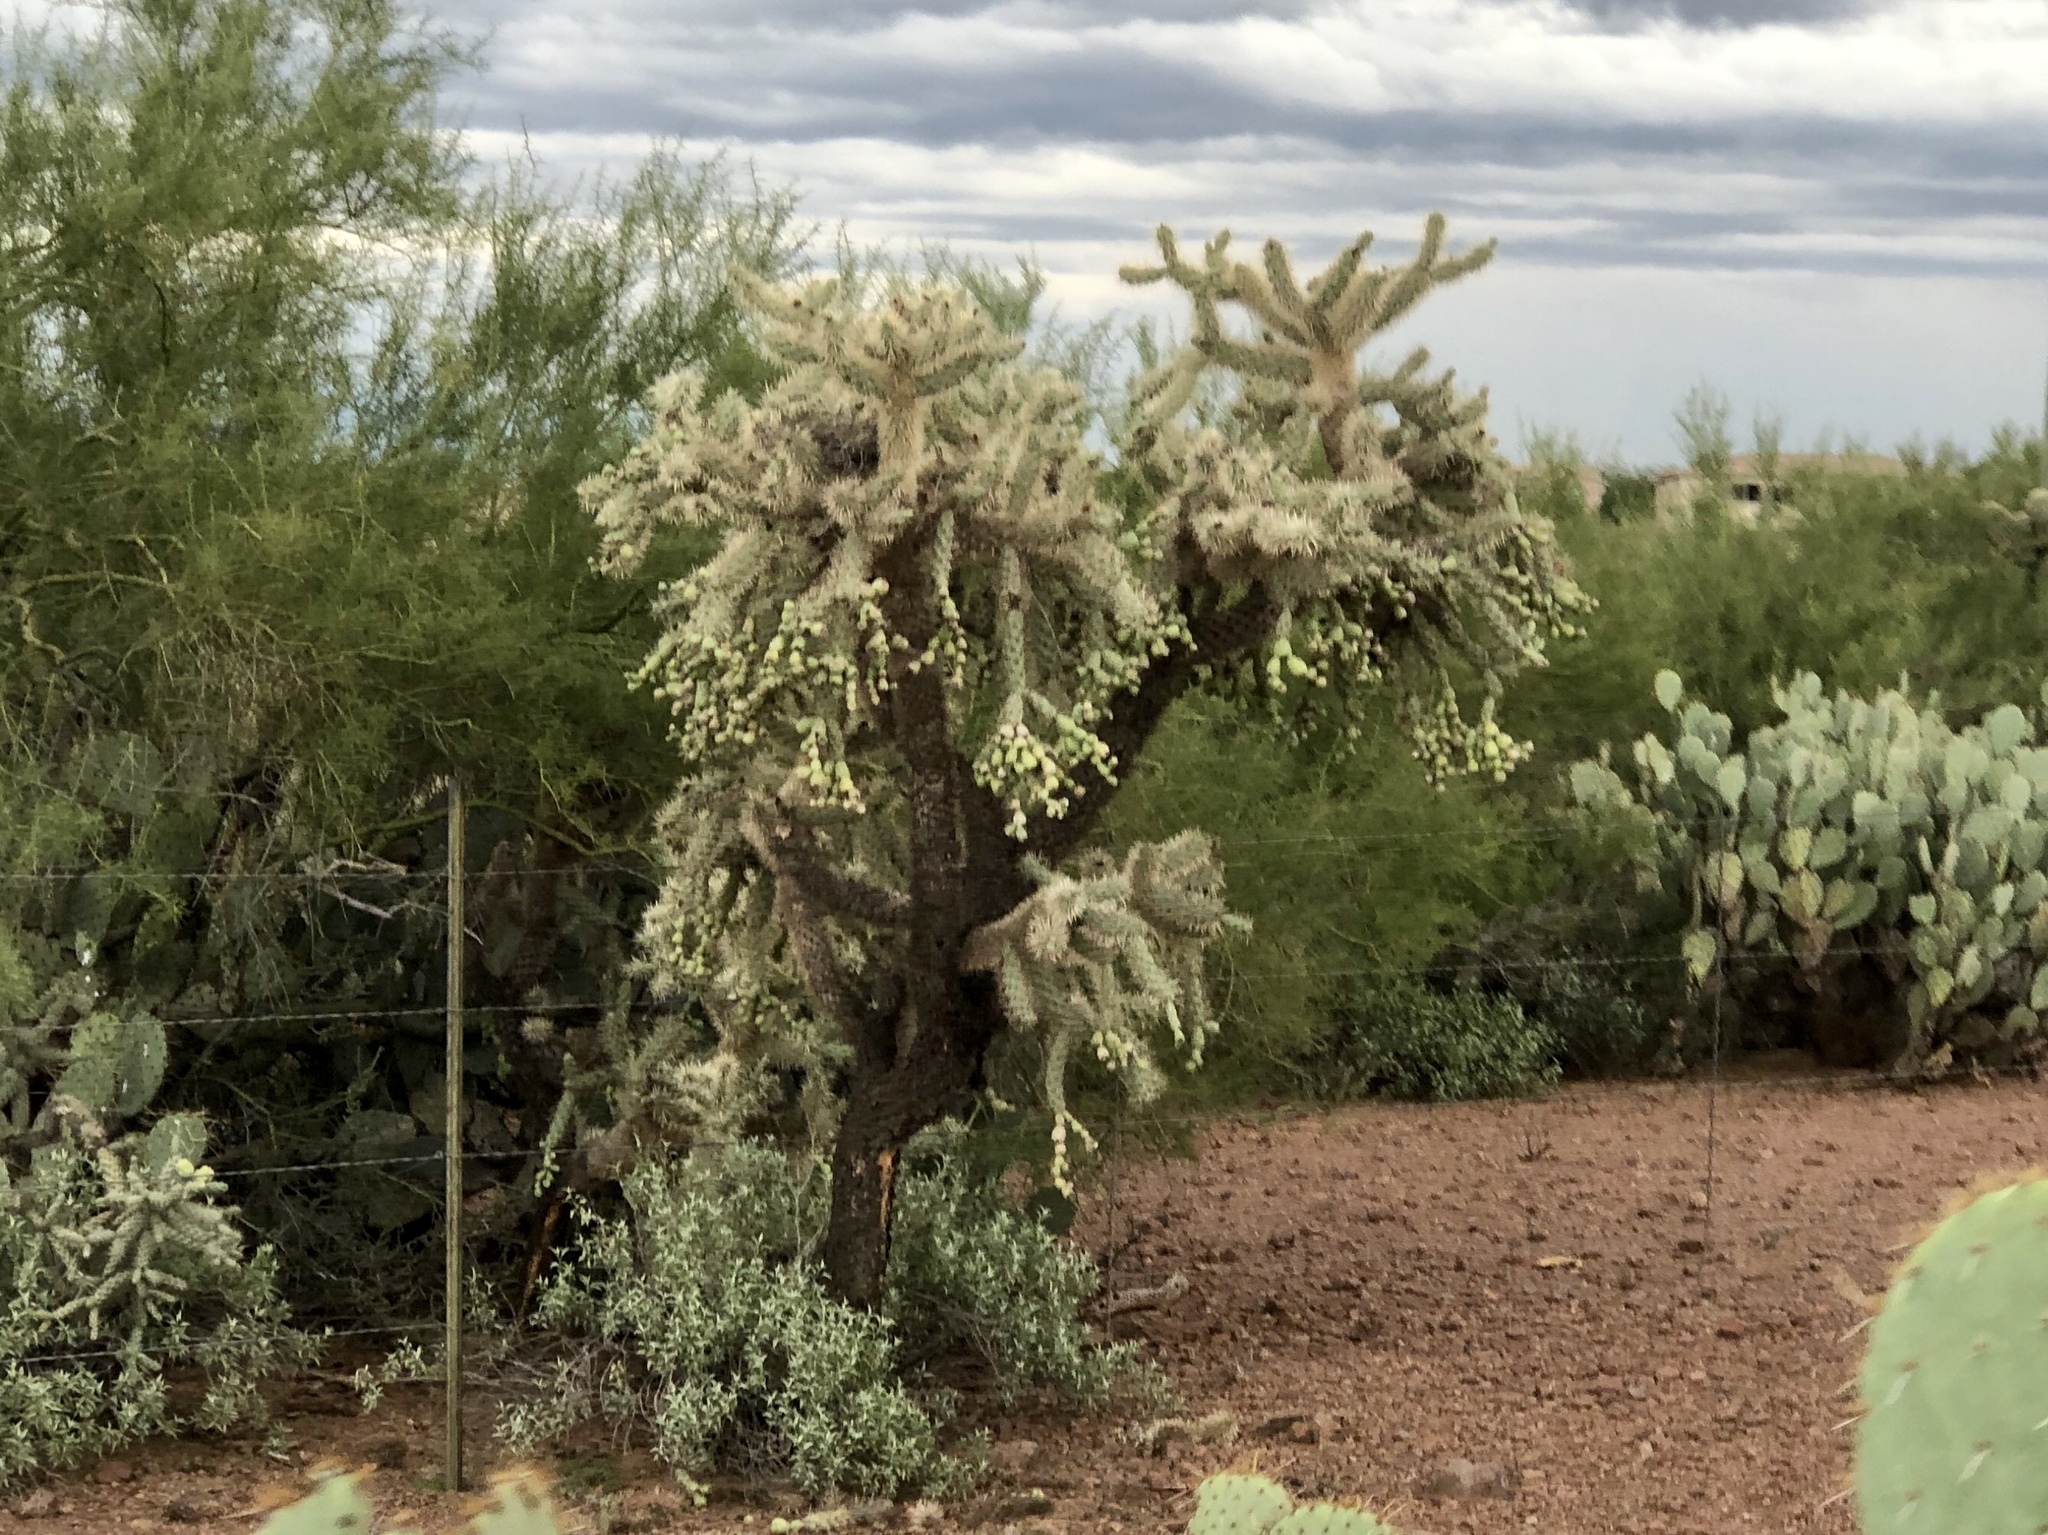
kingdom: Plantae
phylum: Tracheophyta
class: Magnoliopsida
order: Caryophyllales
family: Cactaceae
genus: Cylindropuntia
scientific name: Cylindropuntia fulgida
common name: Jumping cholla
